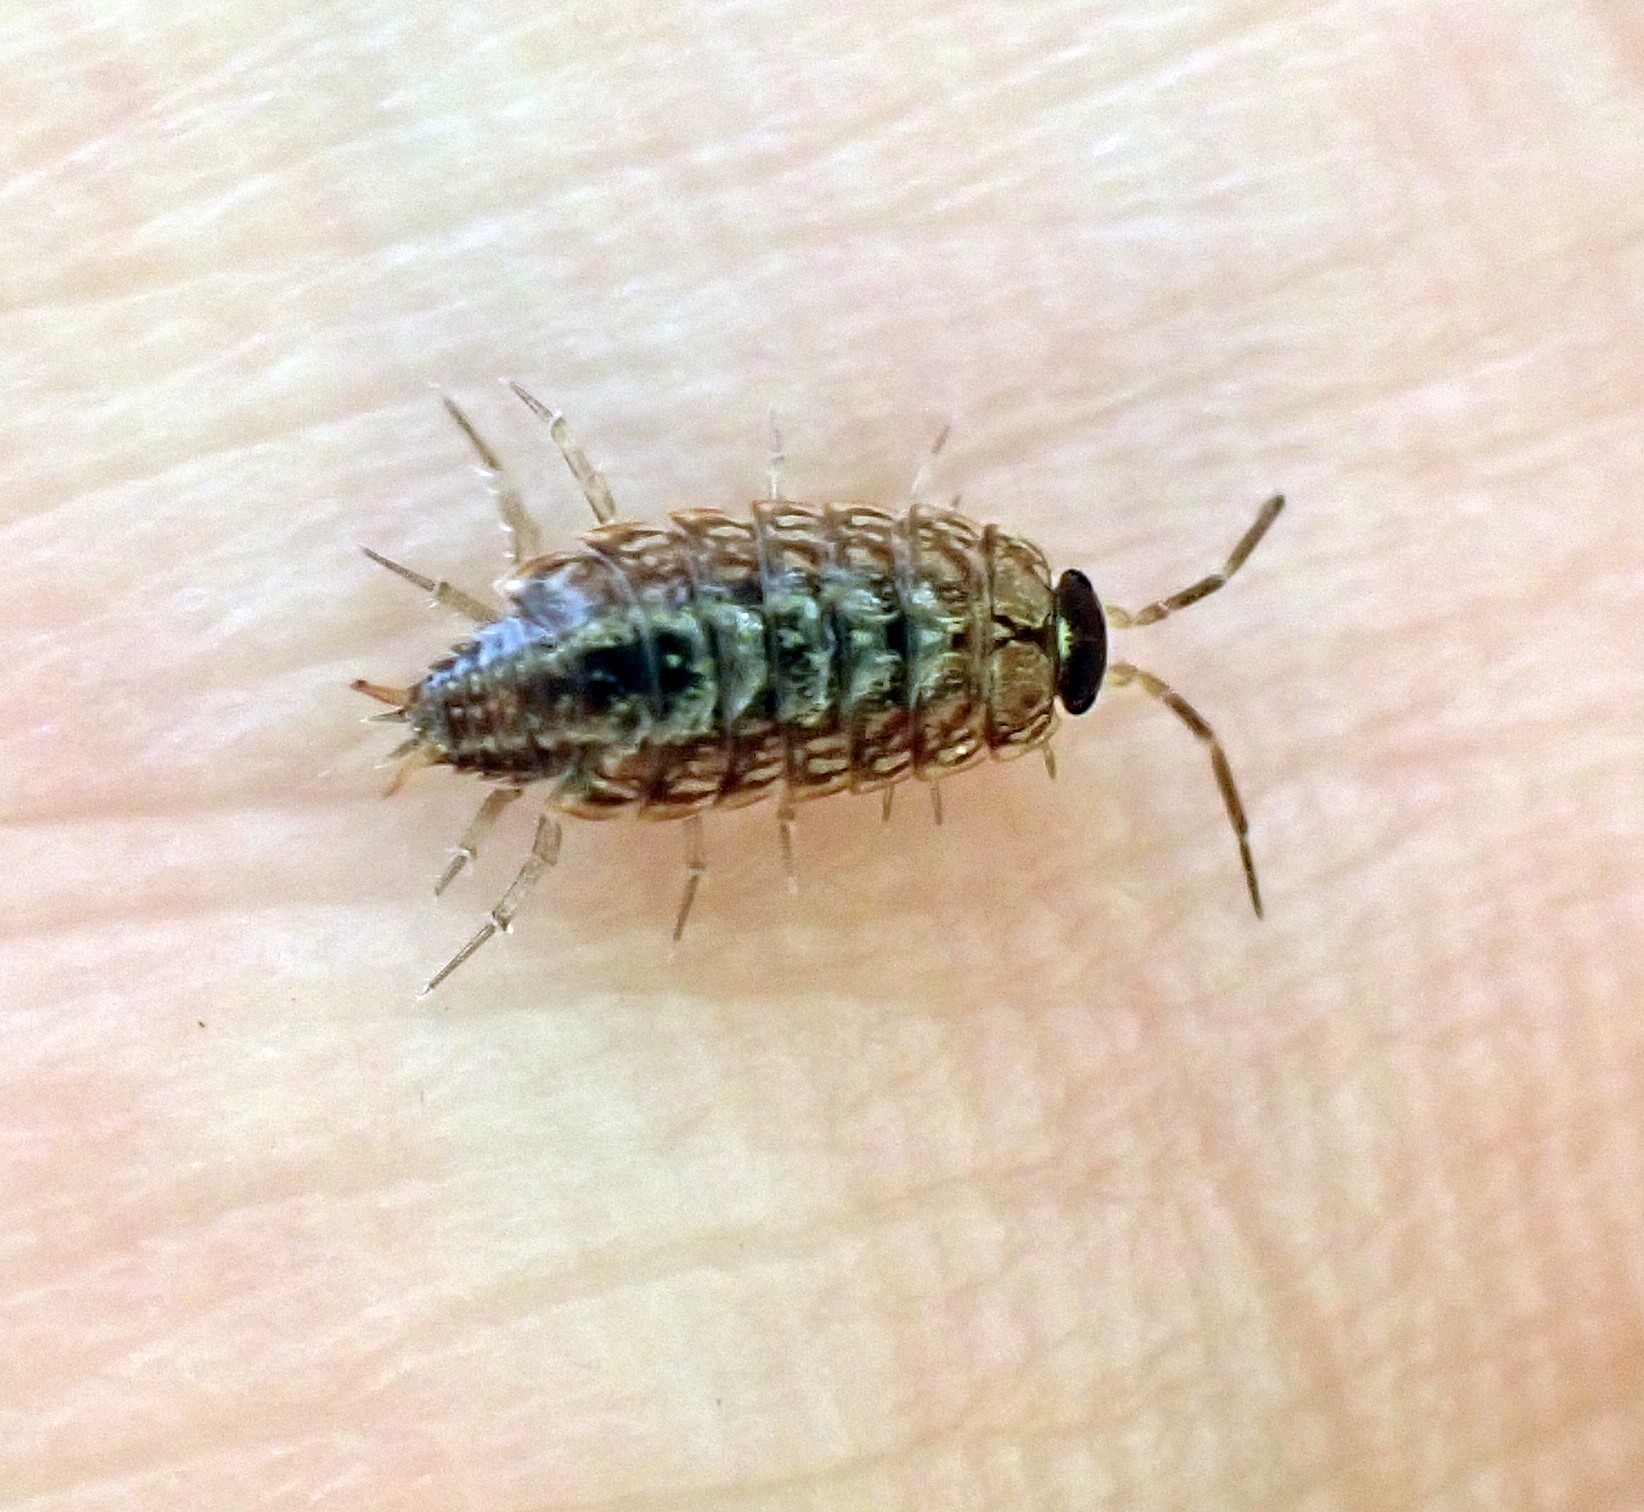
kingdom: Animalia
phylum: Arthropoda
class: Malacostraca
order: Isopoda
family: Philosciidae
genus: Philoscia
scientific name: Philoscia muscorum
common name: Common striped woodlouse
